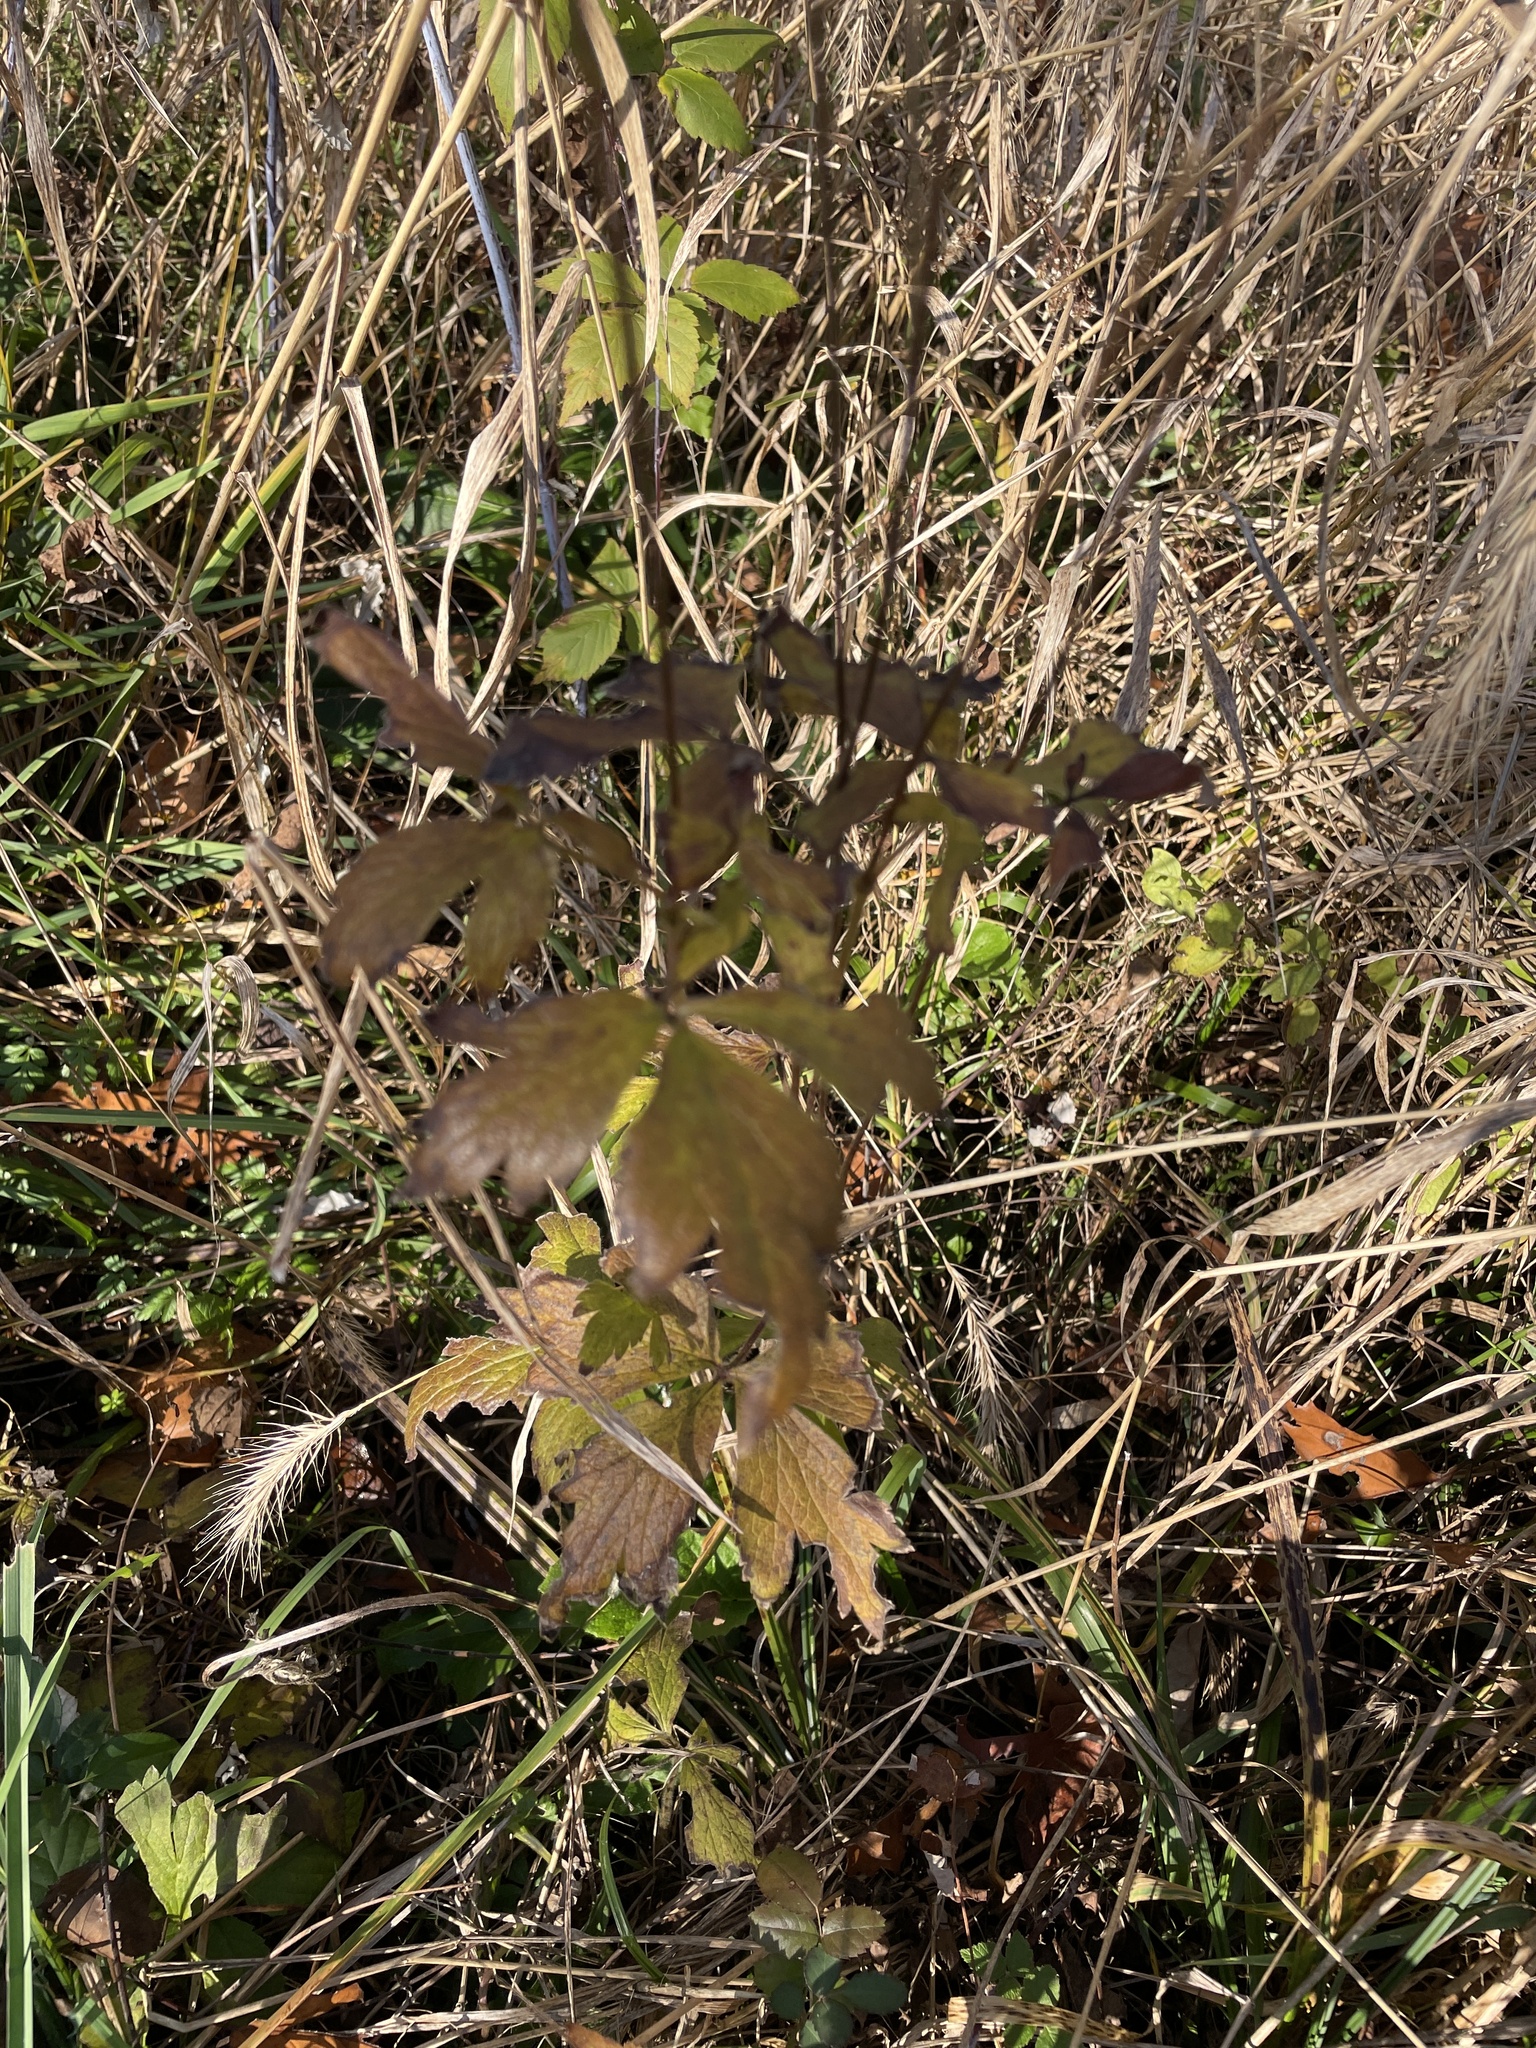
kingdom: Plantae
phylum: Tracheophyta
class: Magnoliopsida
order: Ranunculales
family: Ranunculaceae
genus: Anemone
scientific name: Anemone virginiana
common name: Tall anemone
